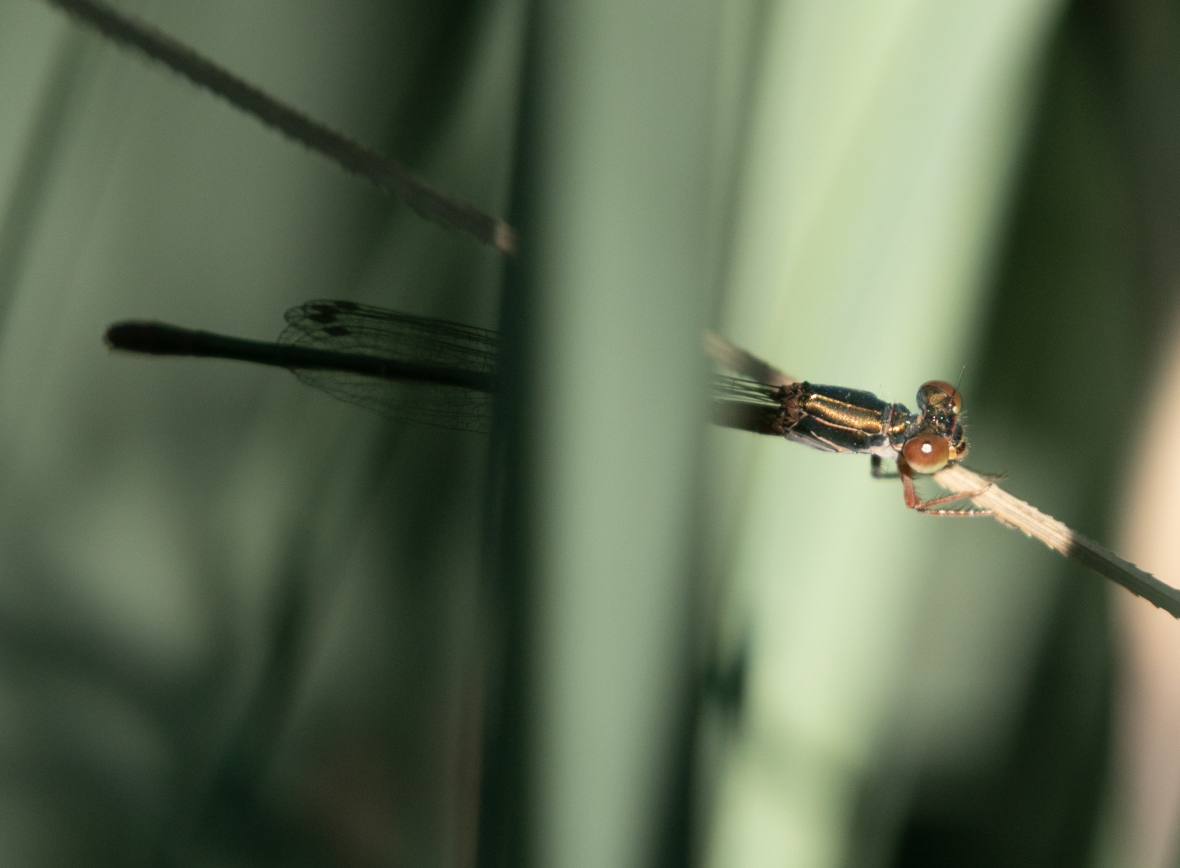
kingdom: Animalia
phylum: Arthropoda
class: Insecta
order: Odonata
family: Coenagrionidae
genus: Ceriagrion
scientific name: Ceriagrion tenellum
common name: Small red damselfly
